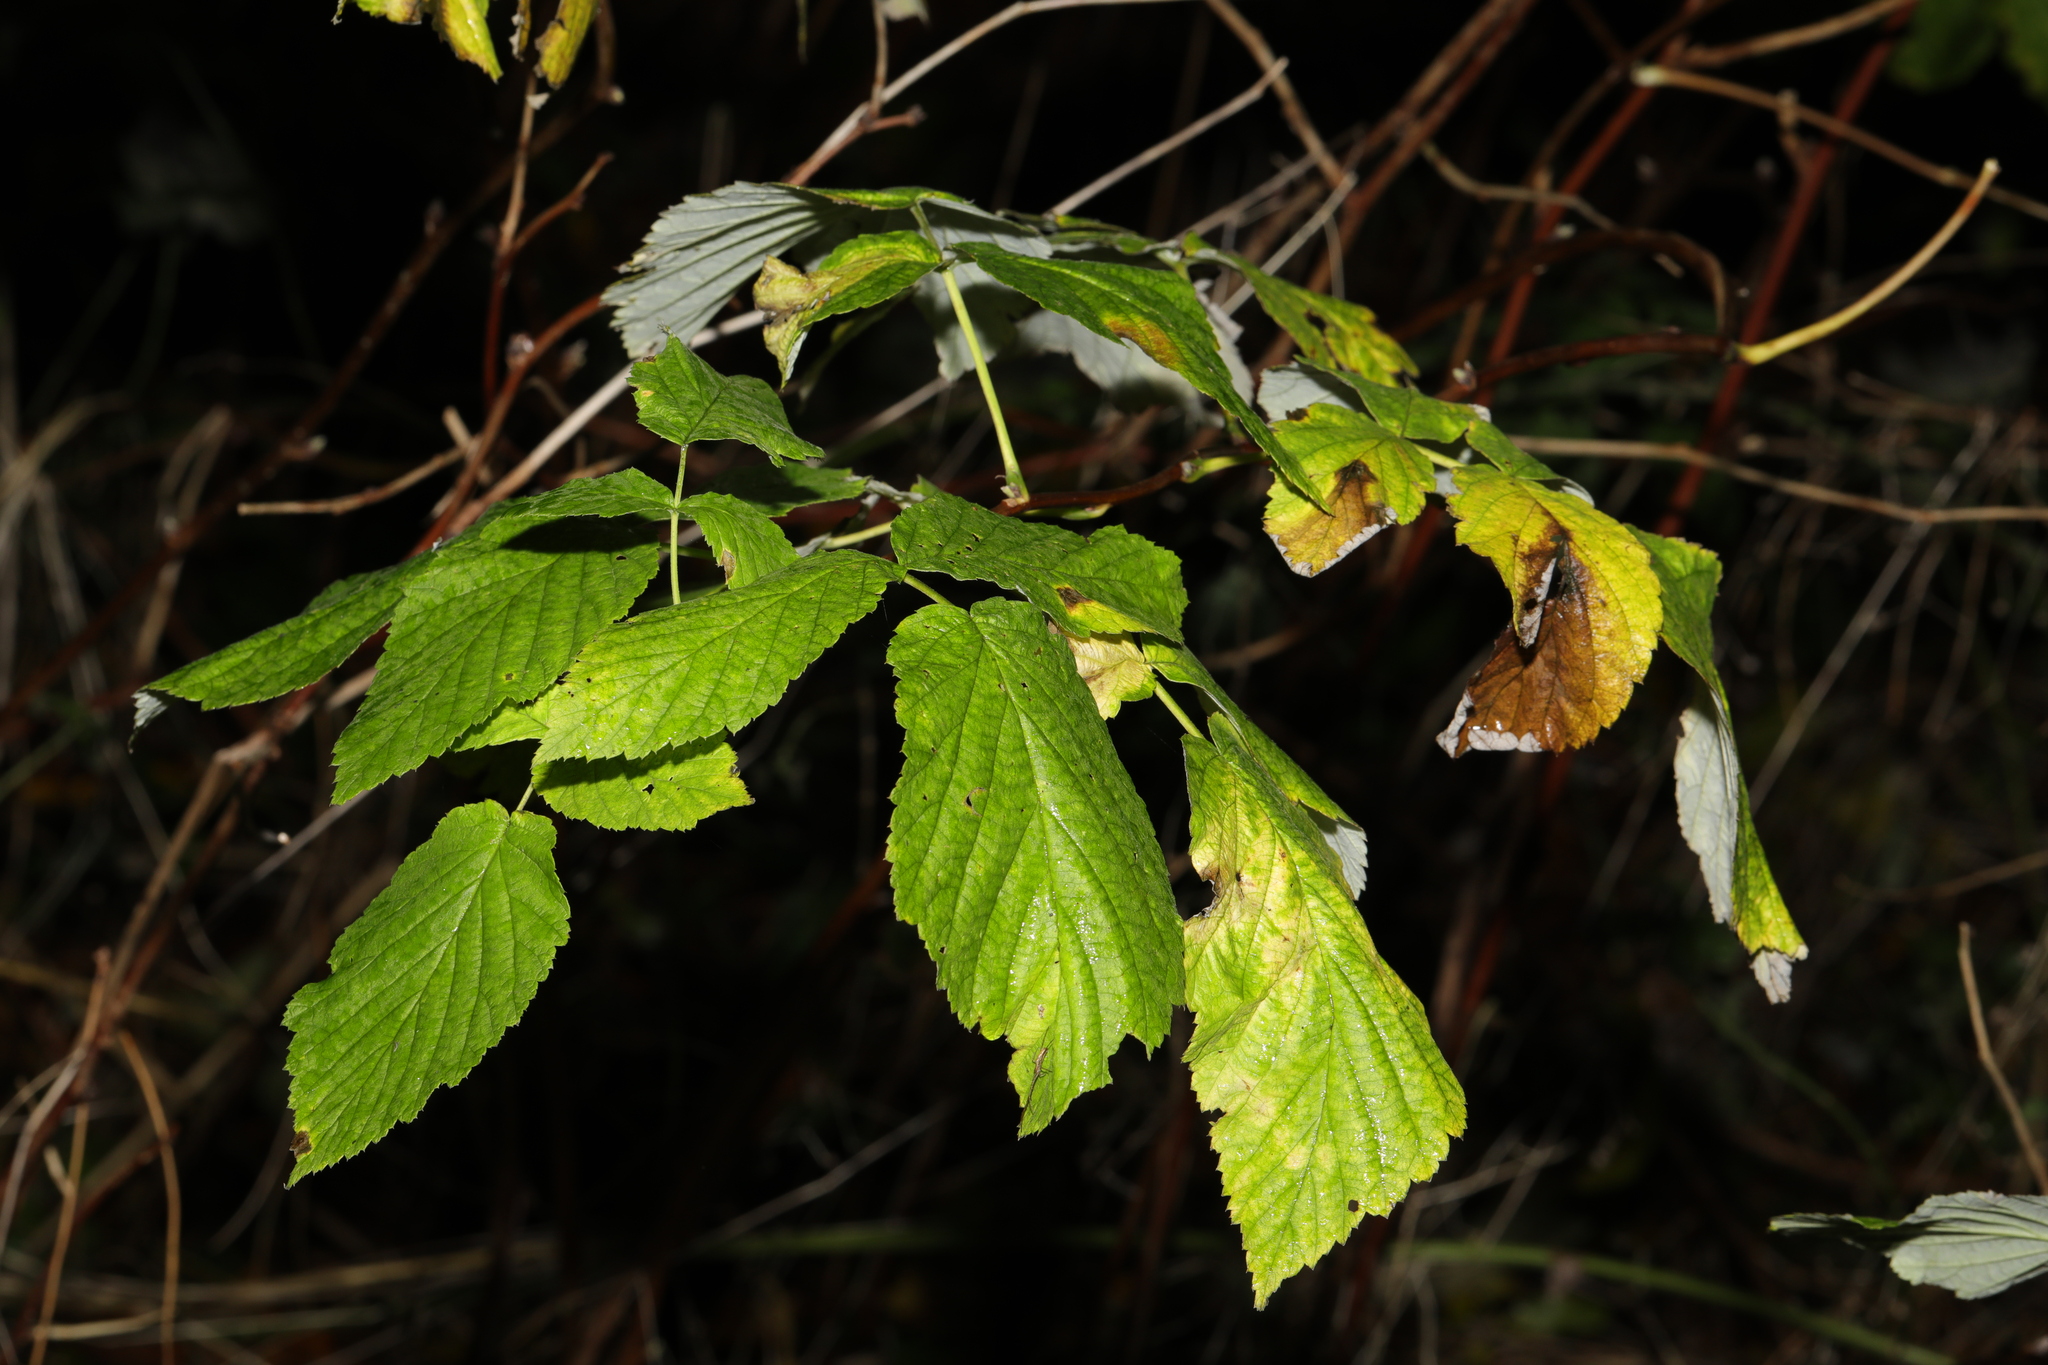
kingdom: Plantae
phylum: Tracheophyta
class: Magnoliopsida
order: Rosales
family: Rosaceae
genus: Rubus
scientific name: Rubus idaeus
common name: Raspberry
